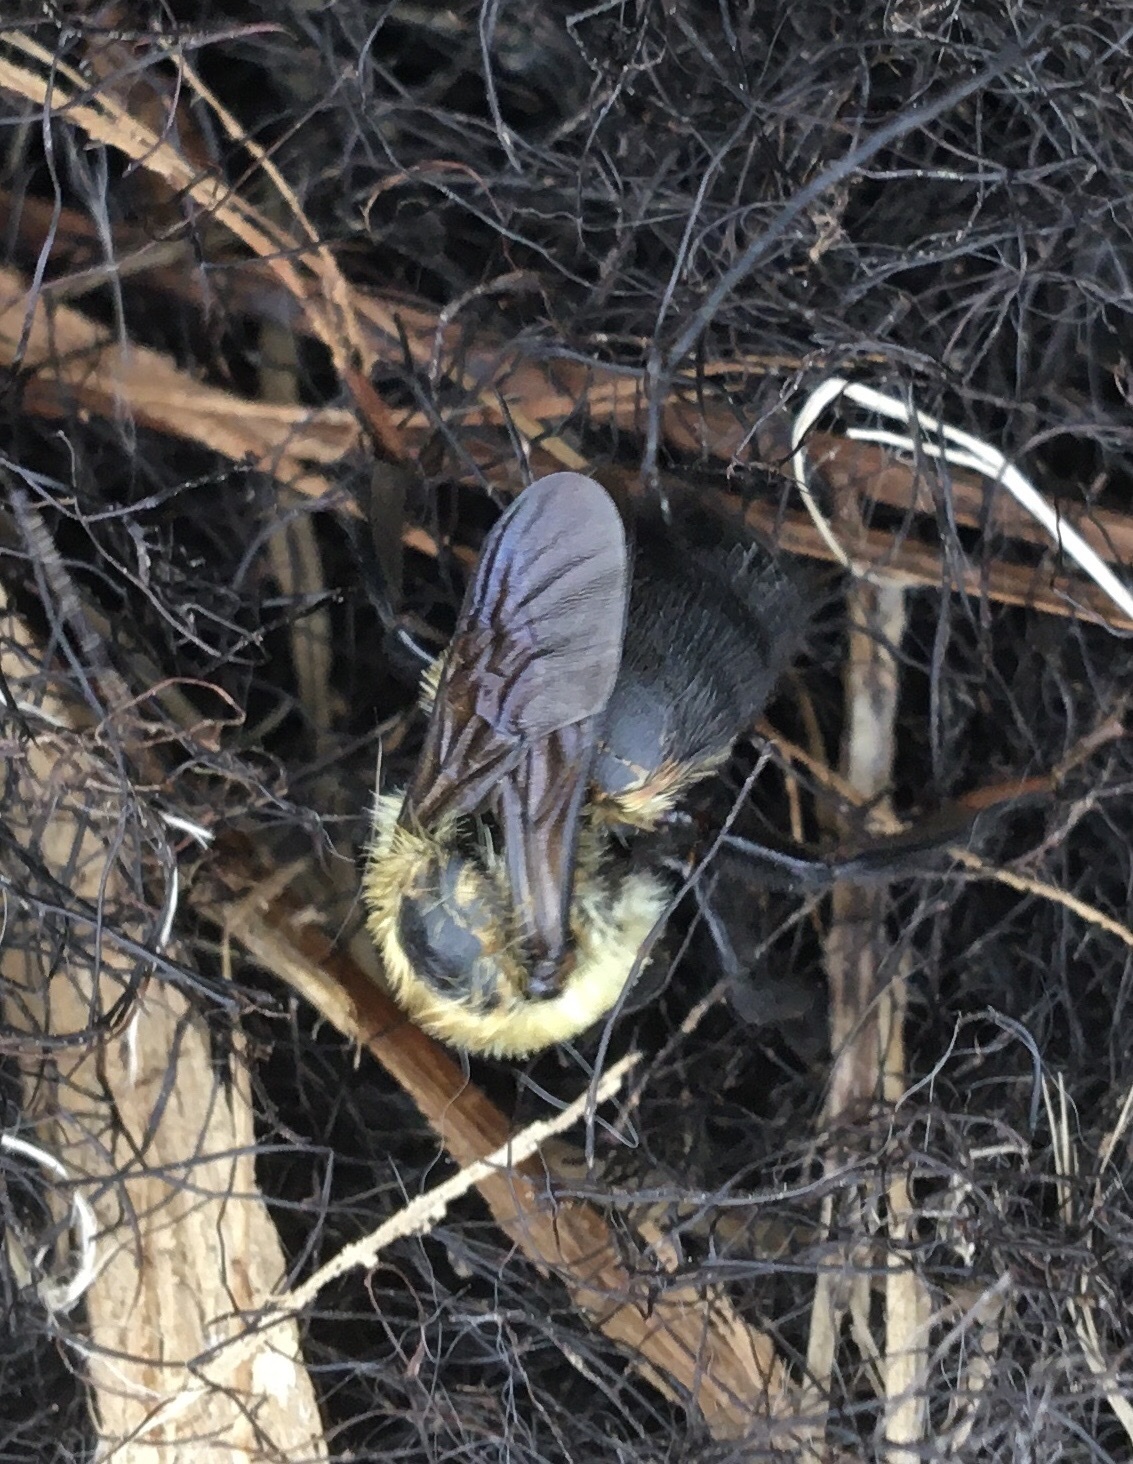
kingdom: Animalia
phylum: Arthropoda
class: Insecta
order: Hymenoptera
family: Apidae
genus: Bombus
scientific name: Bombus griseocollis
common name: Brown-belted bumble bee
